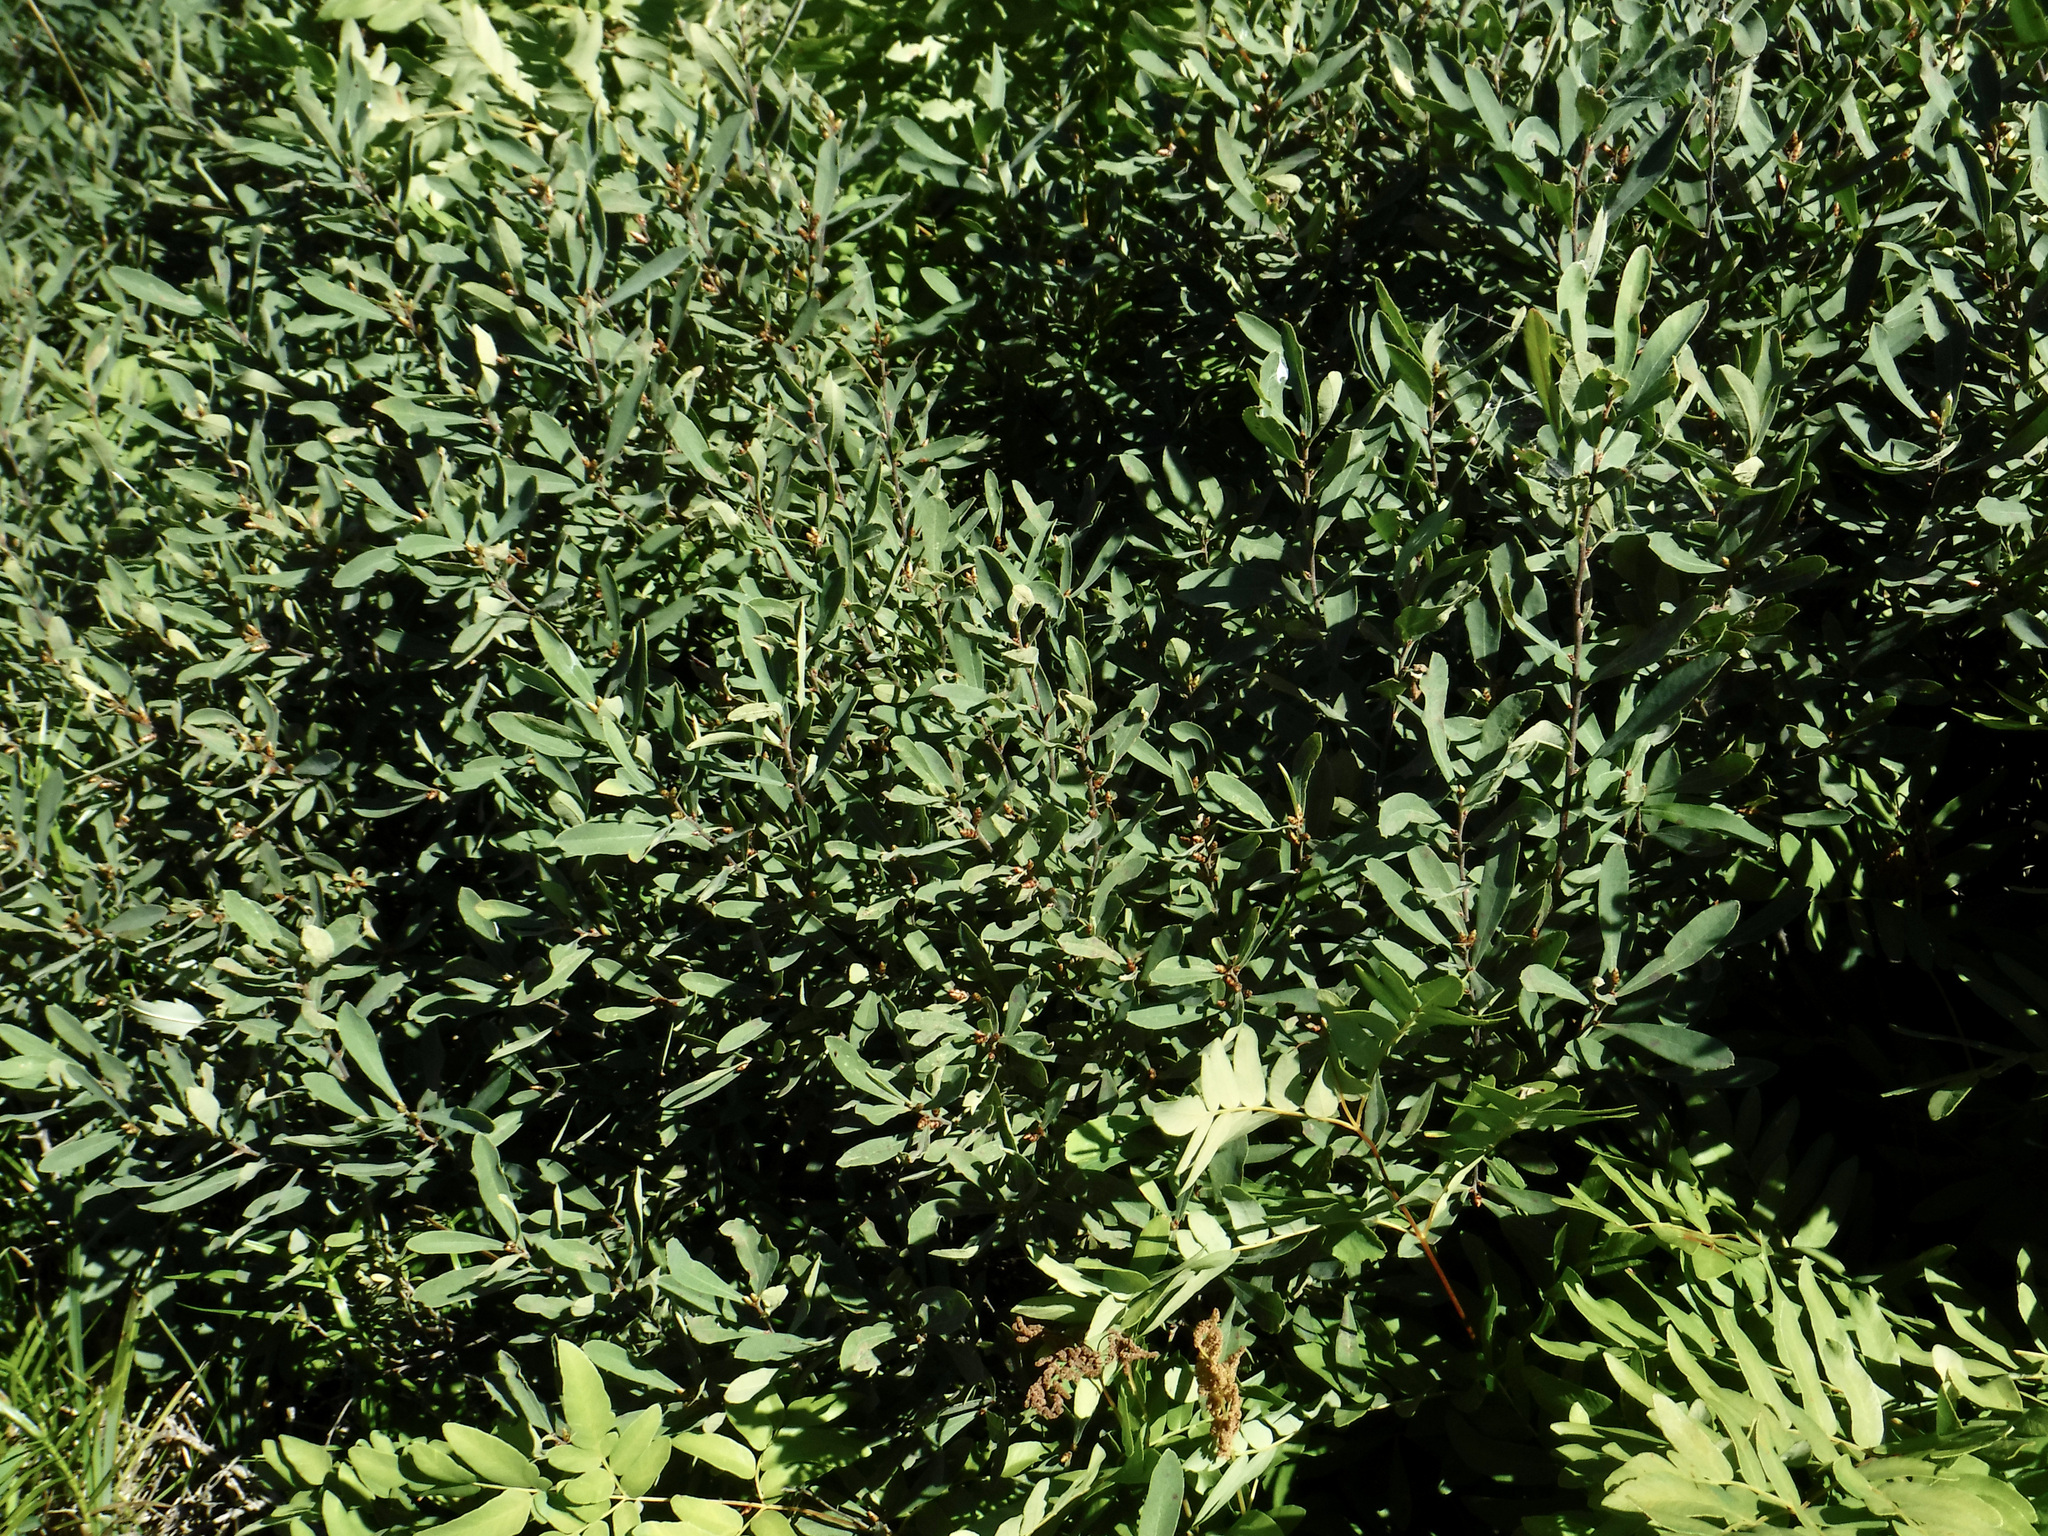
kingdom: Plantae
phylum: Tracheophyta
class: Magnoliopsida
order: Fagales
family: Myricaceae
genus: Myrica
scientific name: Myrica gale
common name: Sweet gale
